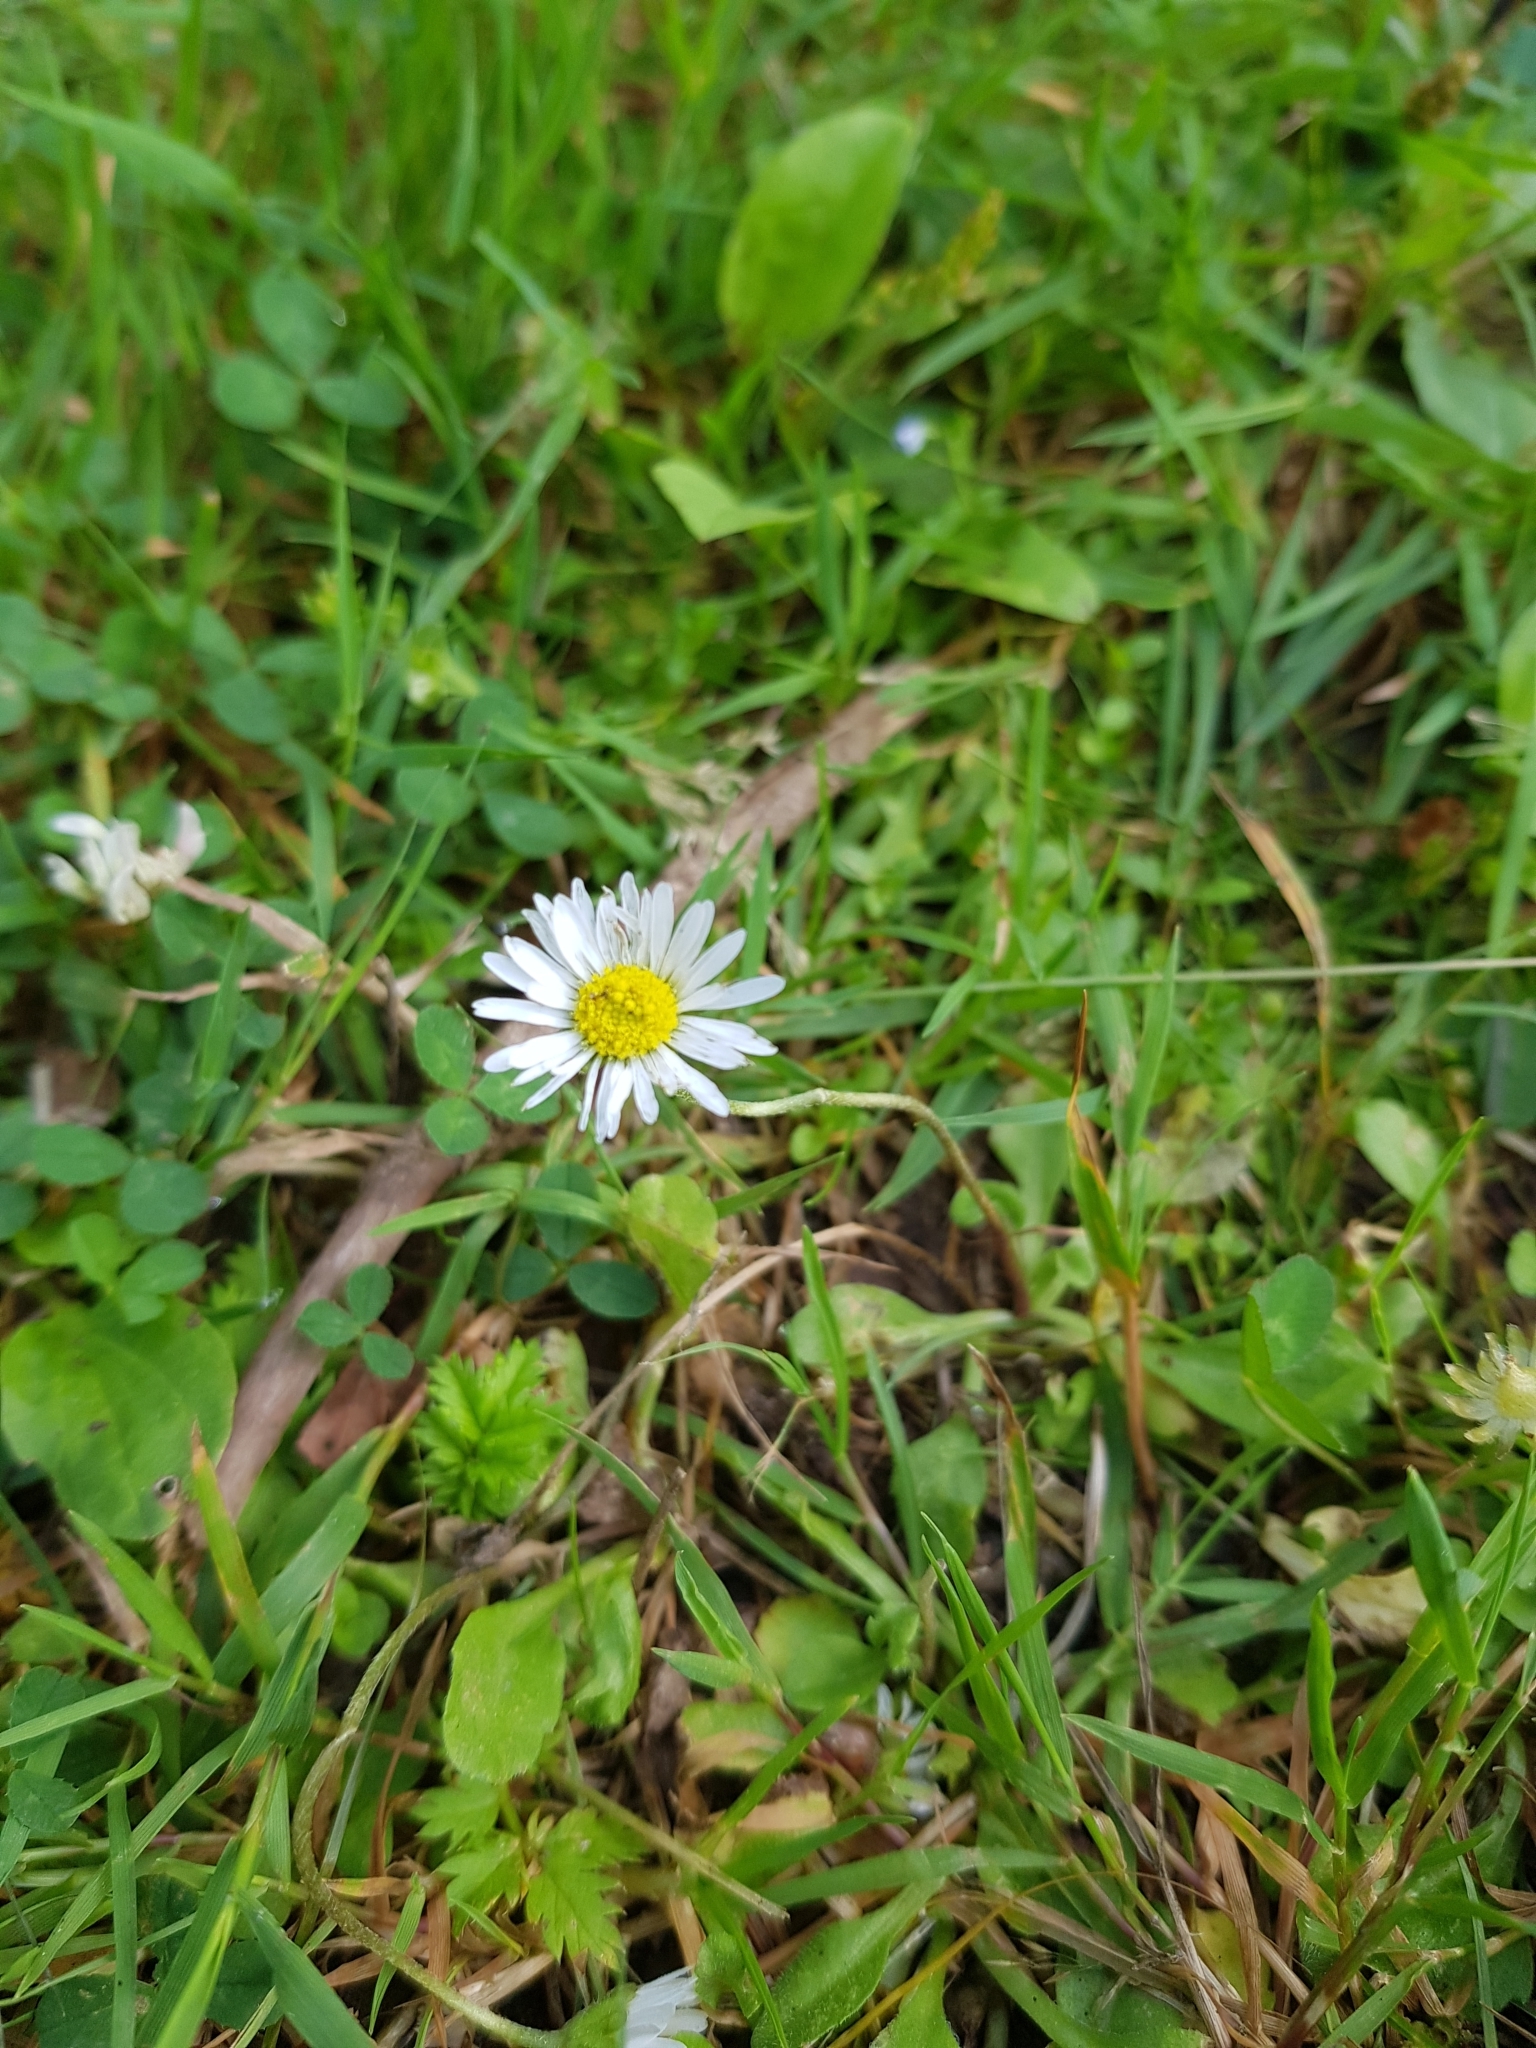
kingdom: Plantae
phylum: Tracheophyta
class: Magnoliopsida
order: Asterales
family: Asteraceae
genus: Bellis
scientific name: Bellis perennis
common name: Lawndaisy
